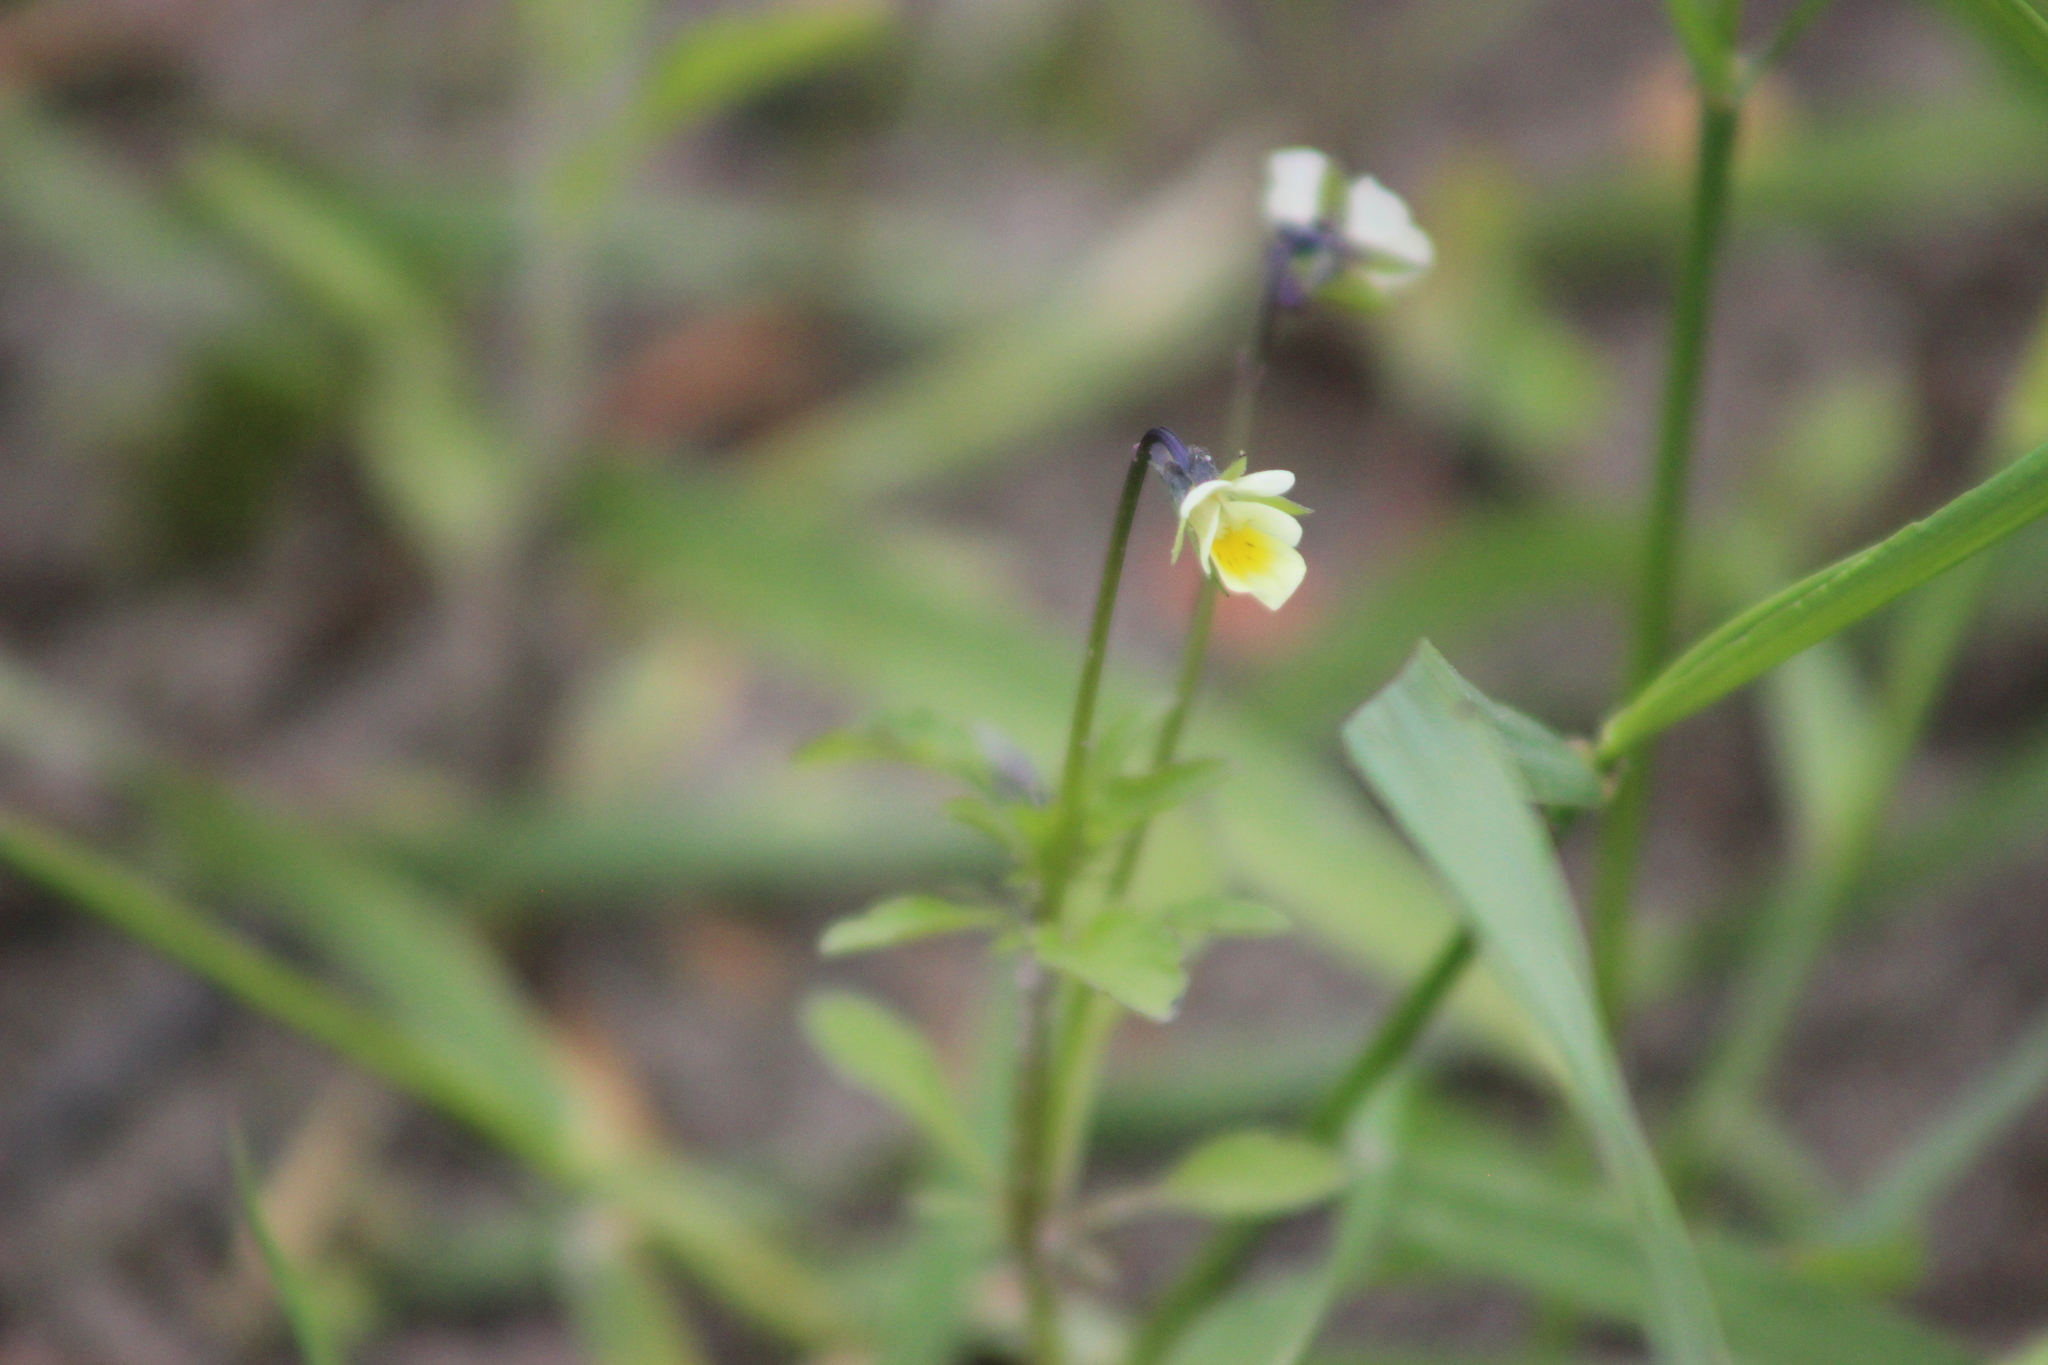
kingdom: Plantae
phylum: Tracheophyta
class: Magnoliopsida
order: Malpighiales
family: Violaceae
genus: Viola
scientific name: Viola arvensis
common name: Field pansy
